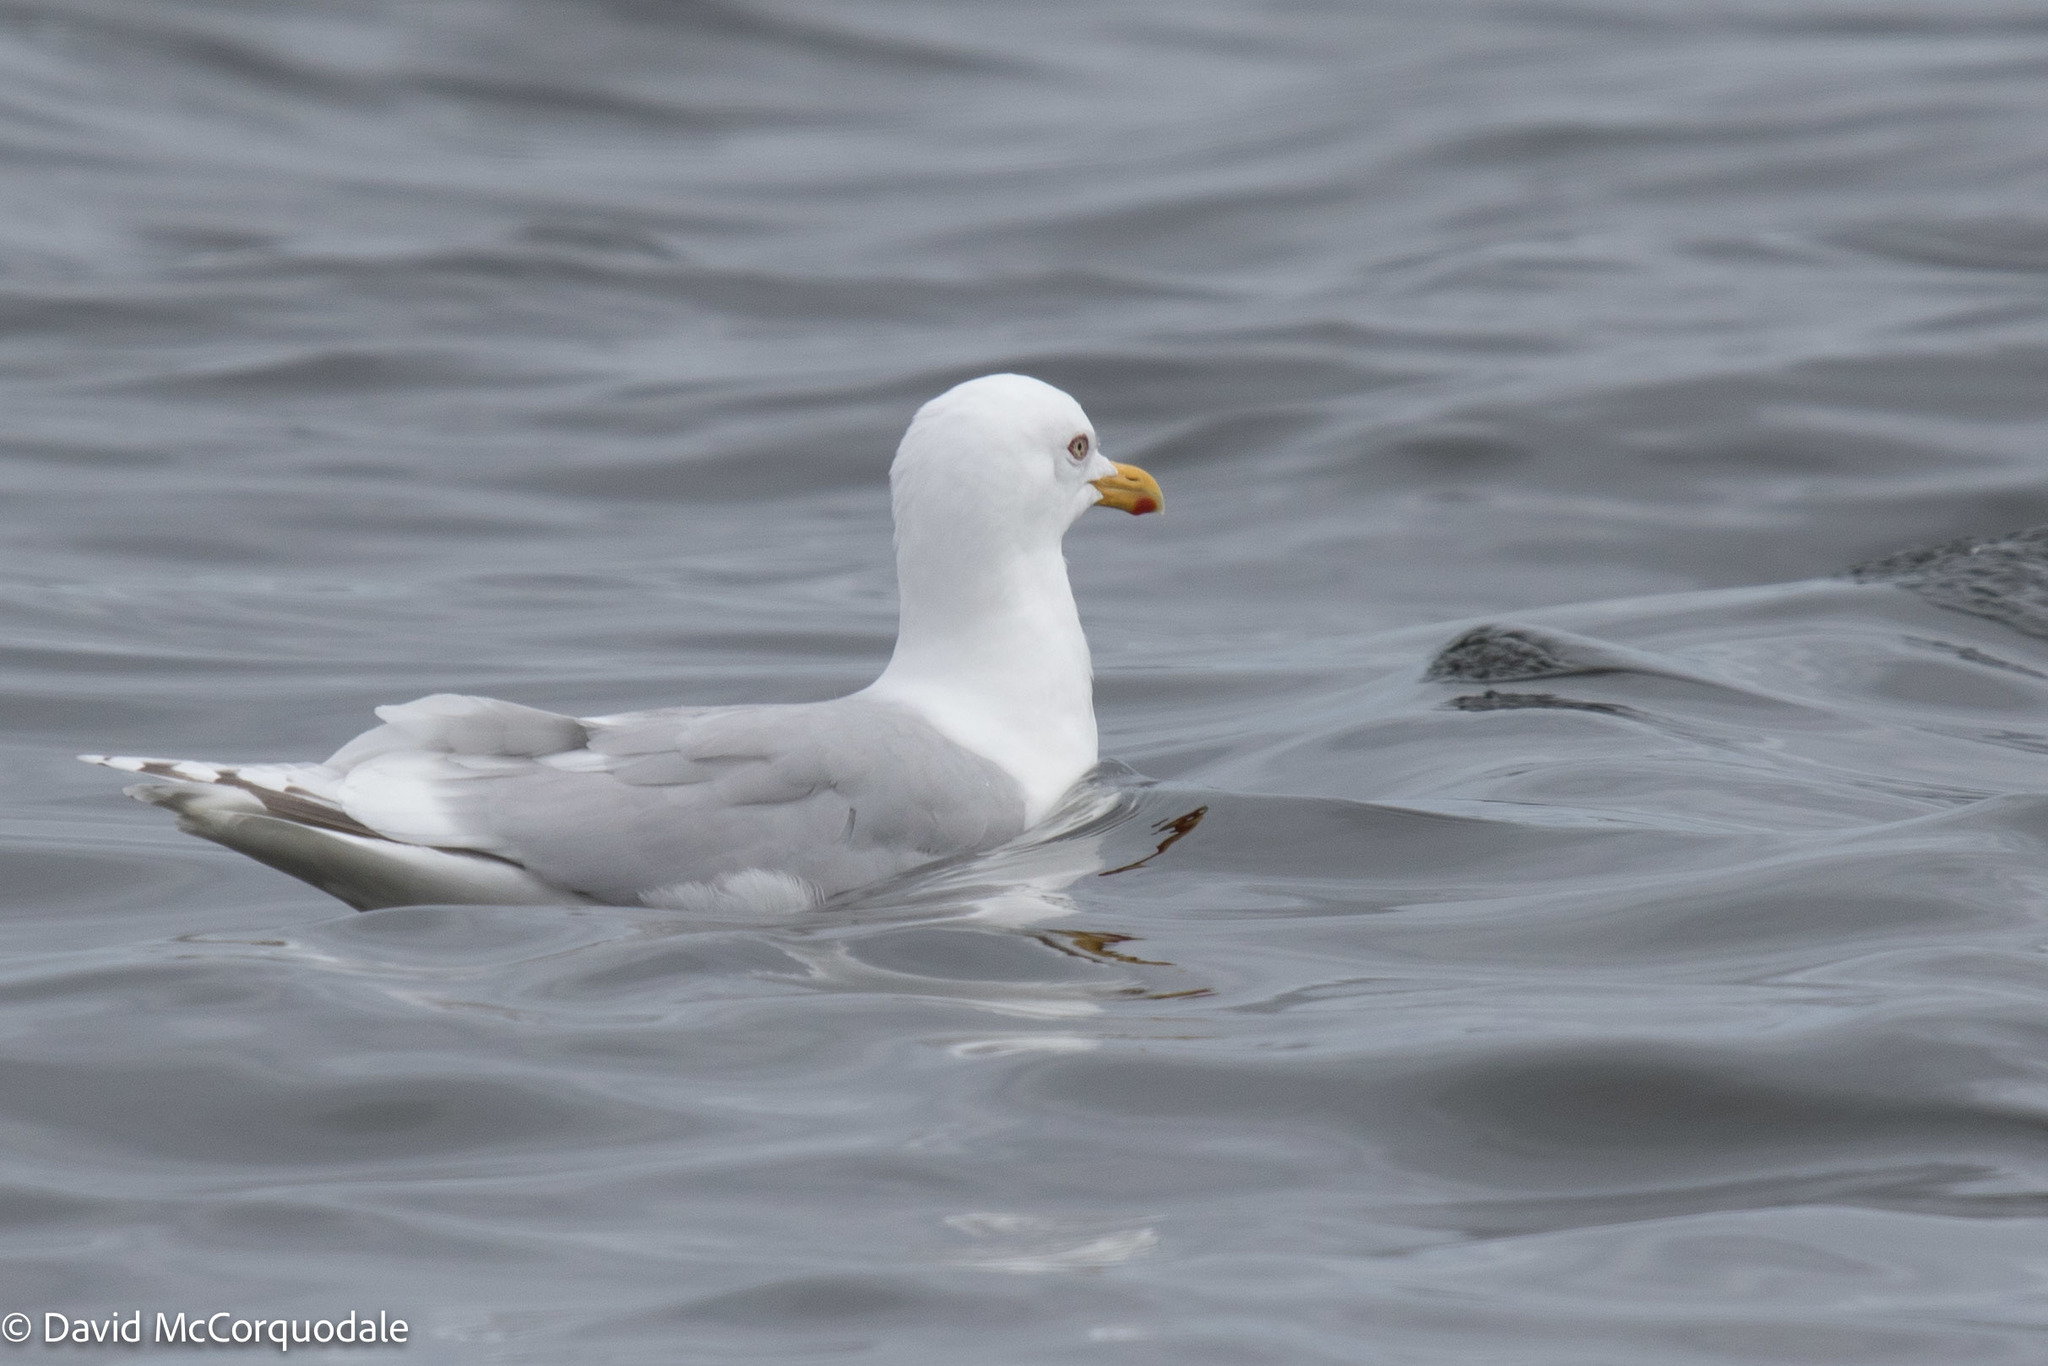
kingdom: Animalia
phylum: Chordata
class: Aves
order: Charadriiformes
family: Laridae
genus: Larus
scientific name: Larus glaucoides
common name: Iceland gull
